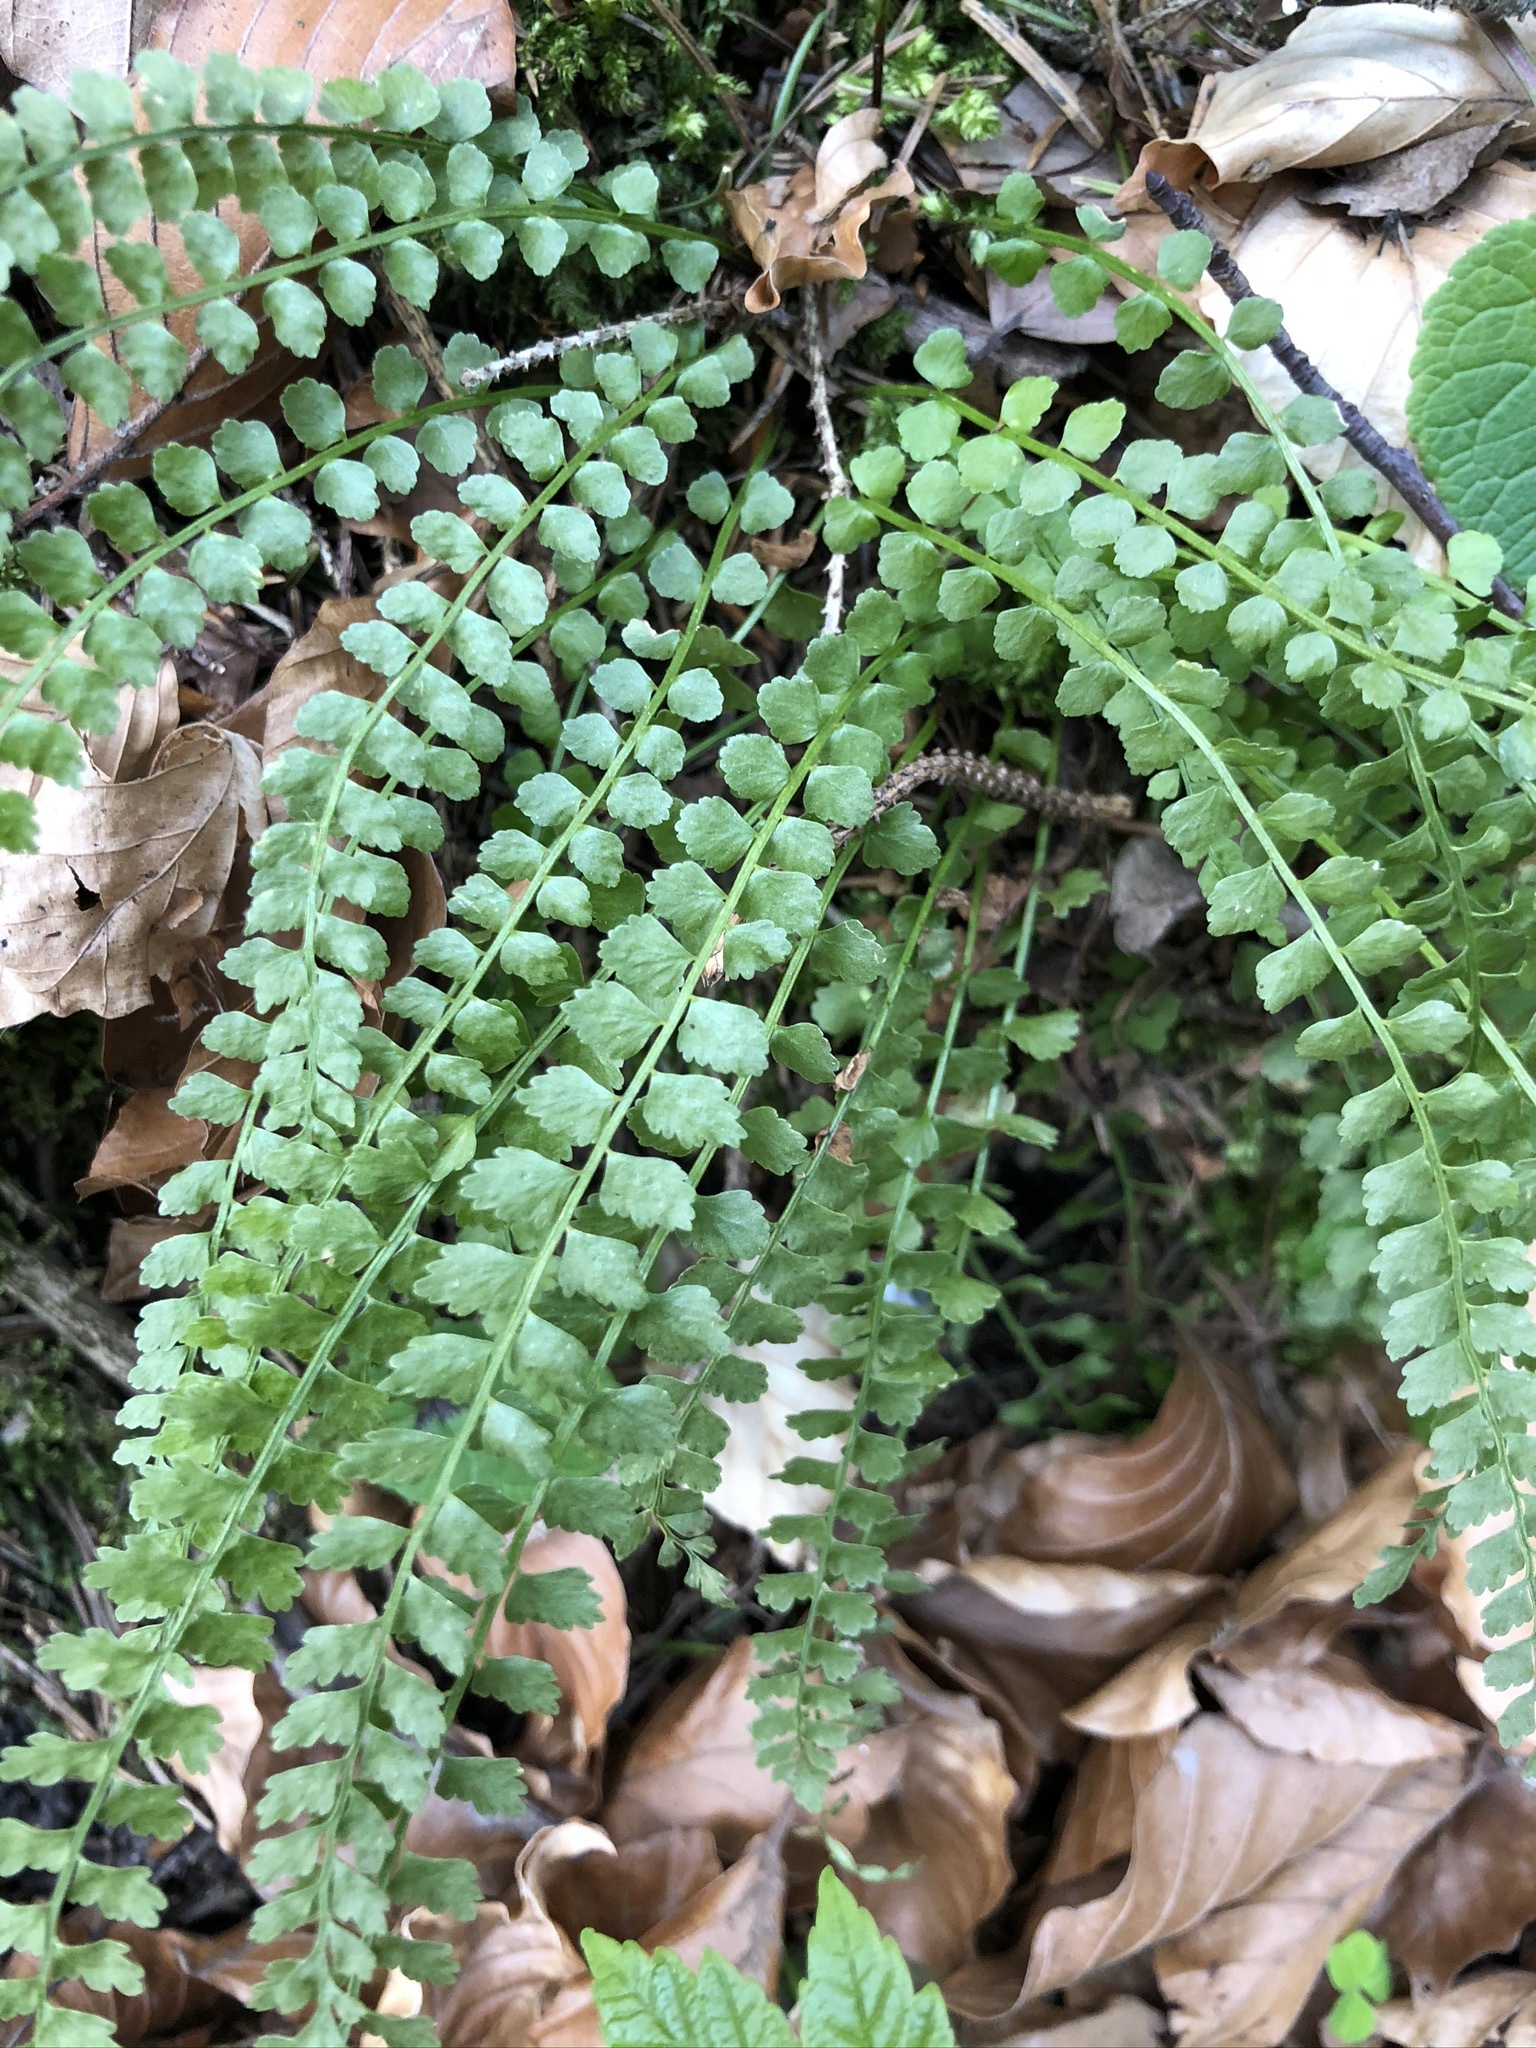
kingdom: Plantae
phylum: Tracheophyta
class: Polypodiopsida
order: Polypodiales
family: Aspleniaceae
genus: Asplenium
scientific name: Asplenium viride
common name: Green spleenwort
